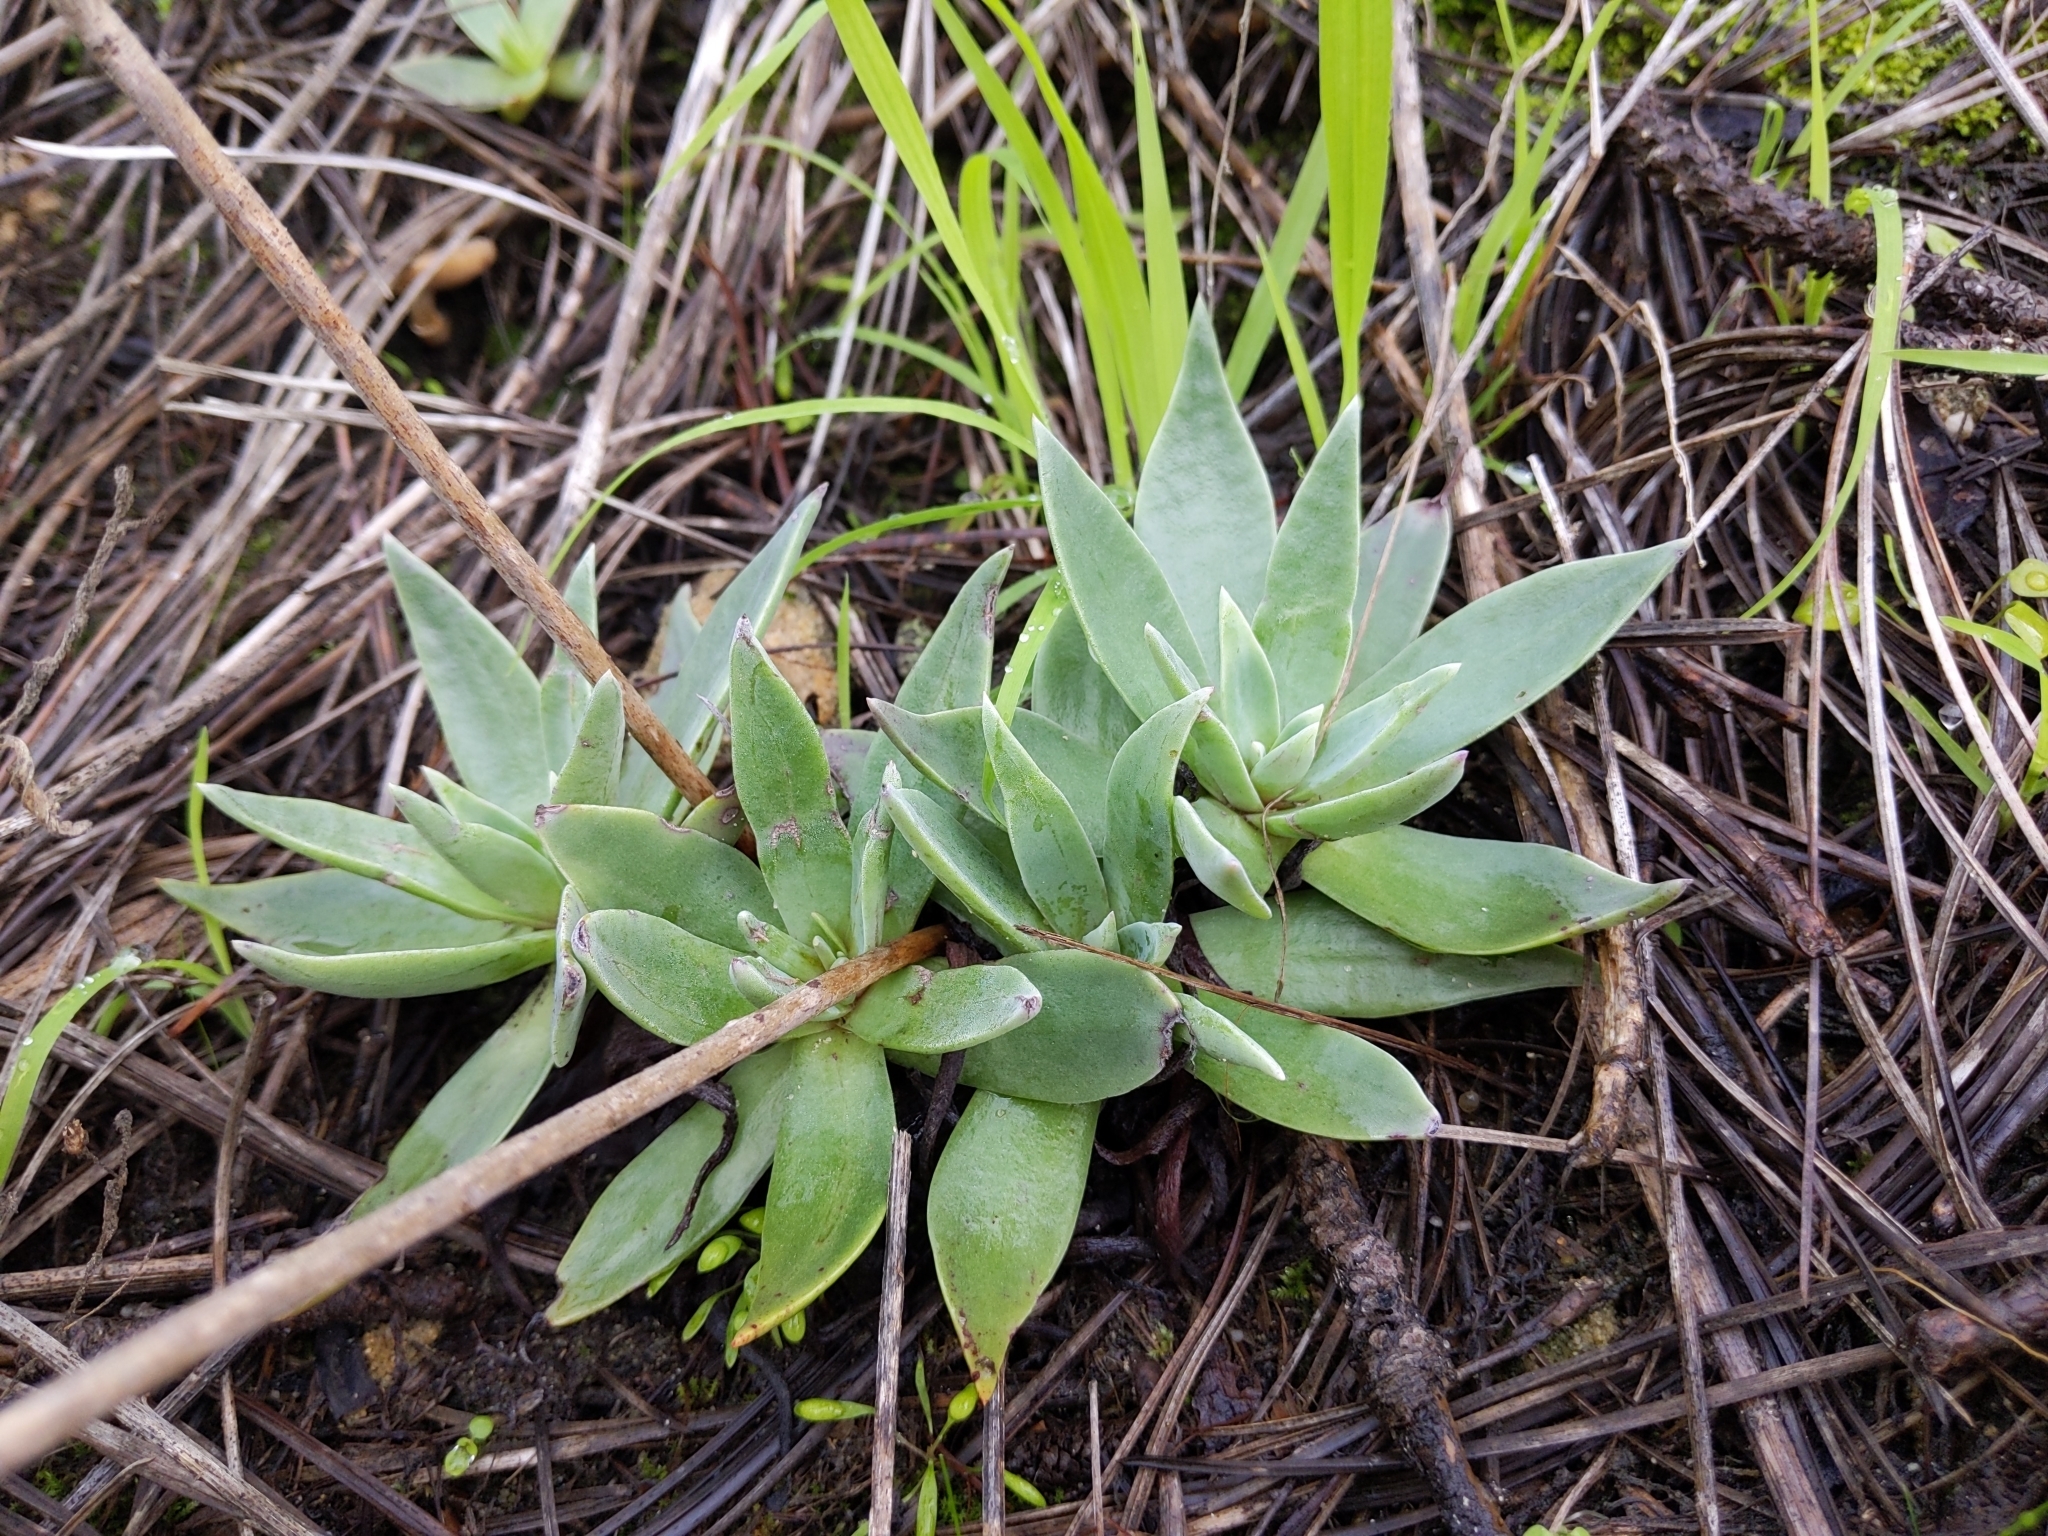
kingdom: Plantae
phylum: Tracheophyta
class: Magnoliopsida
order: Saxifragales
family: Crassulaceae
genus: Dudleya
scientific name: Dudleya lanceolata
